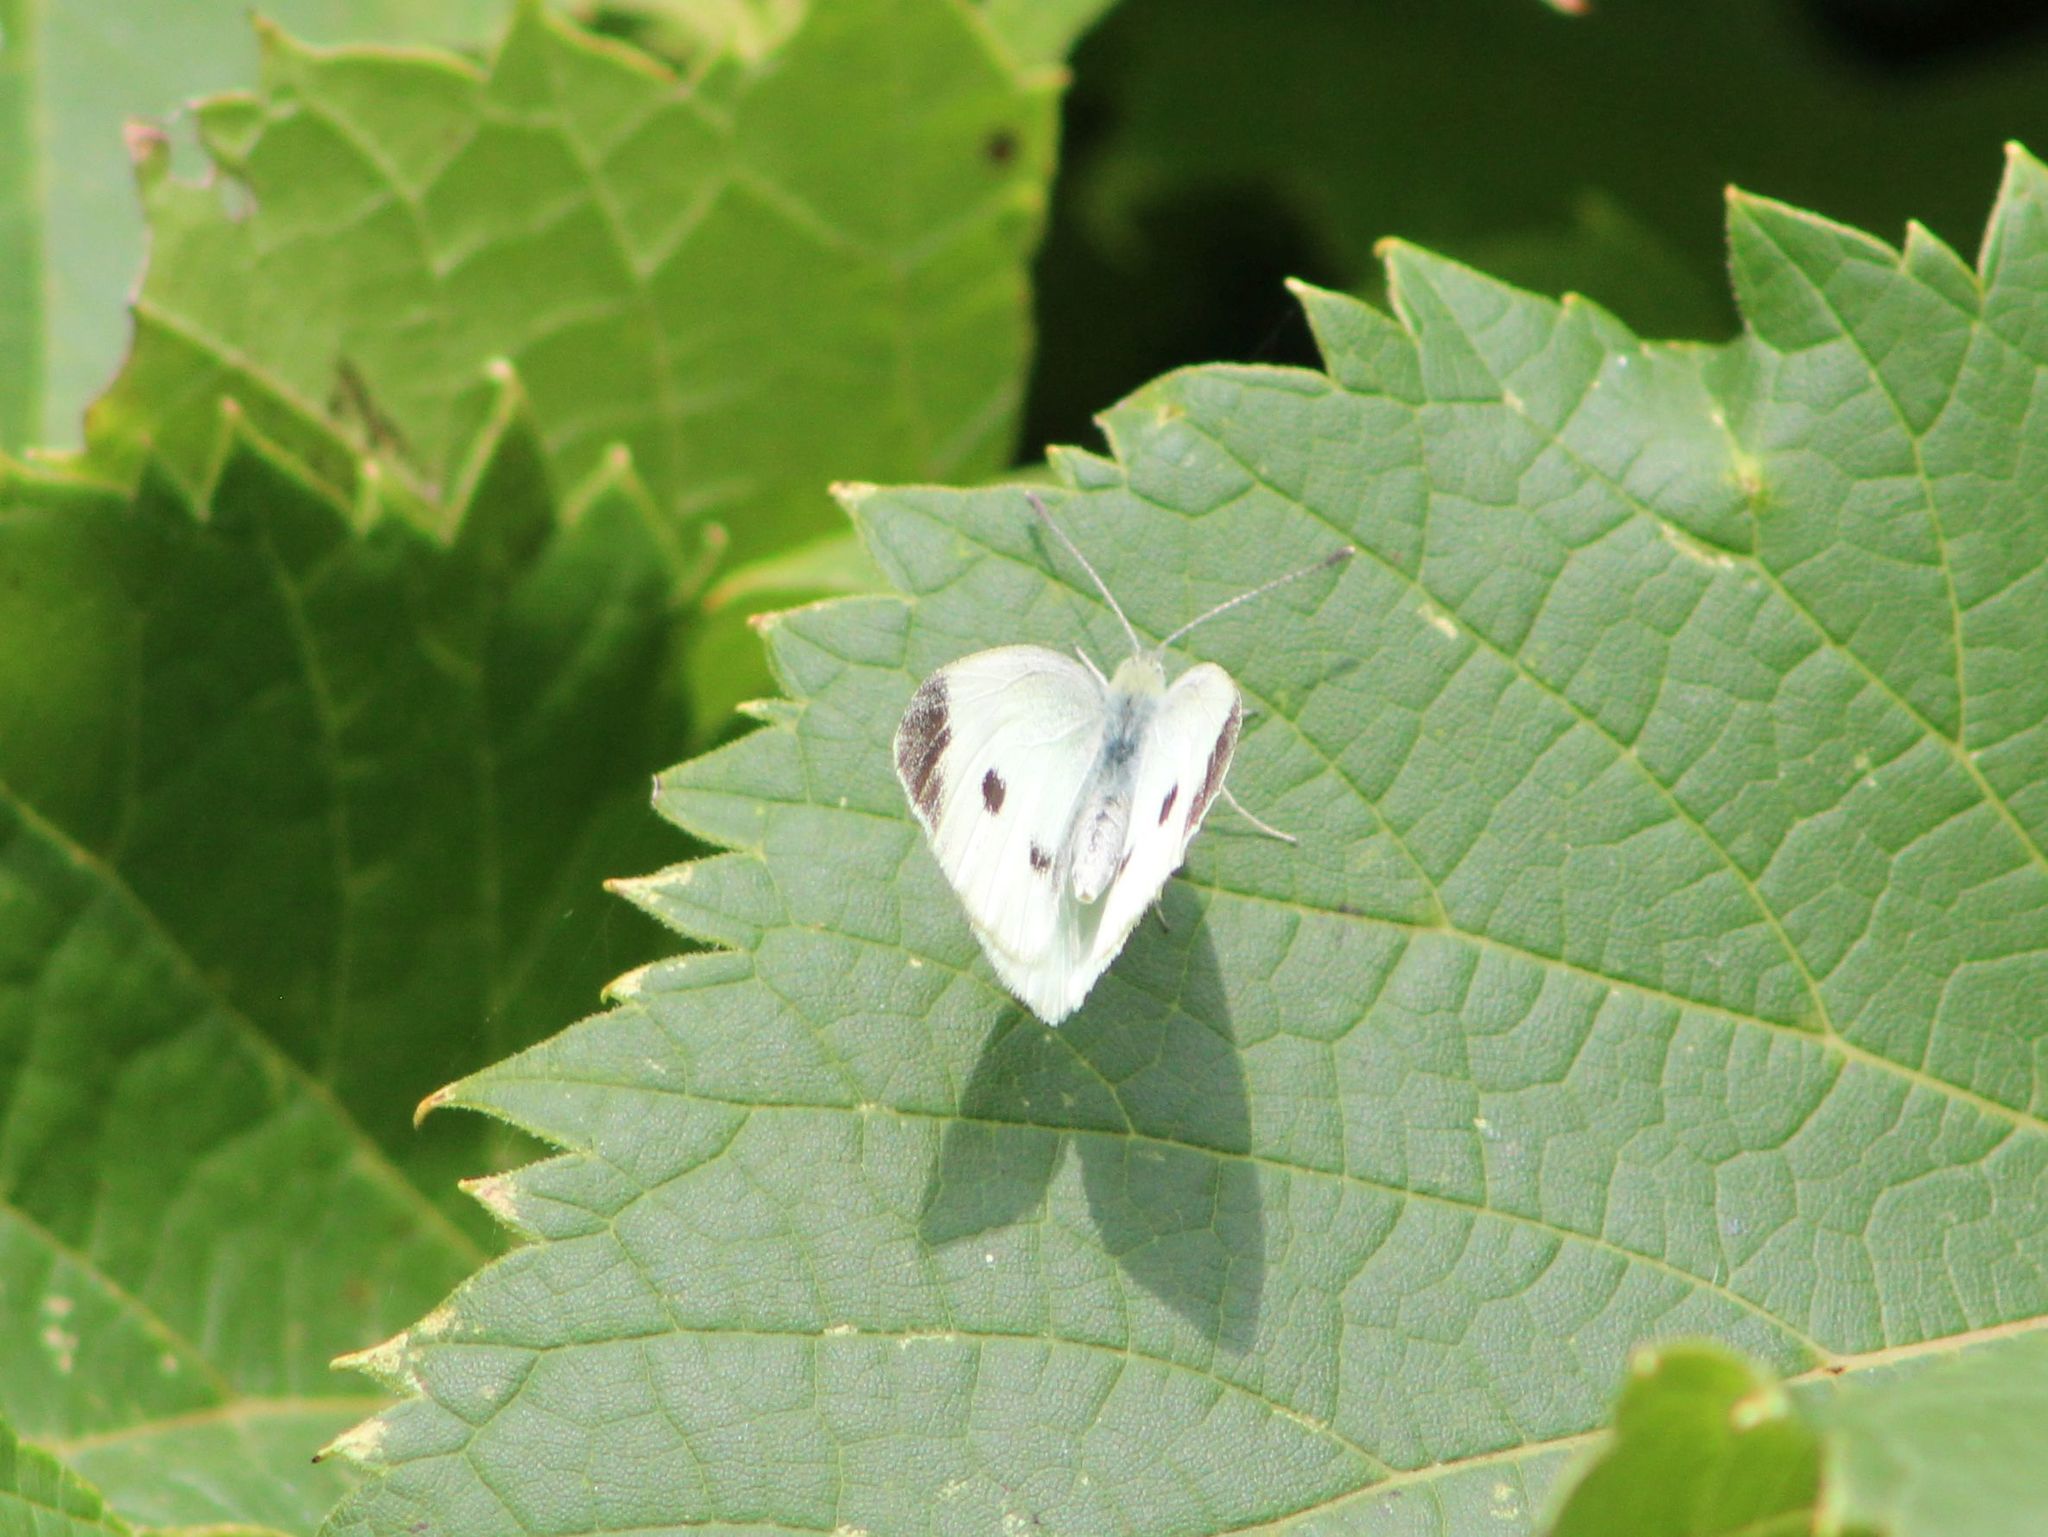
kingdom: Animalia
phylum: Arthropoda
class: Insecta
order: Lepidoptera
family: Pieridae
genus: Pieris
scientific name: Pieris rapae
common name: Small white
